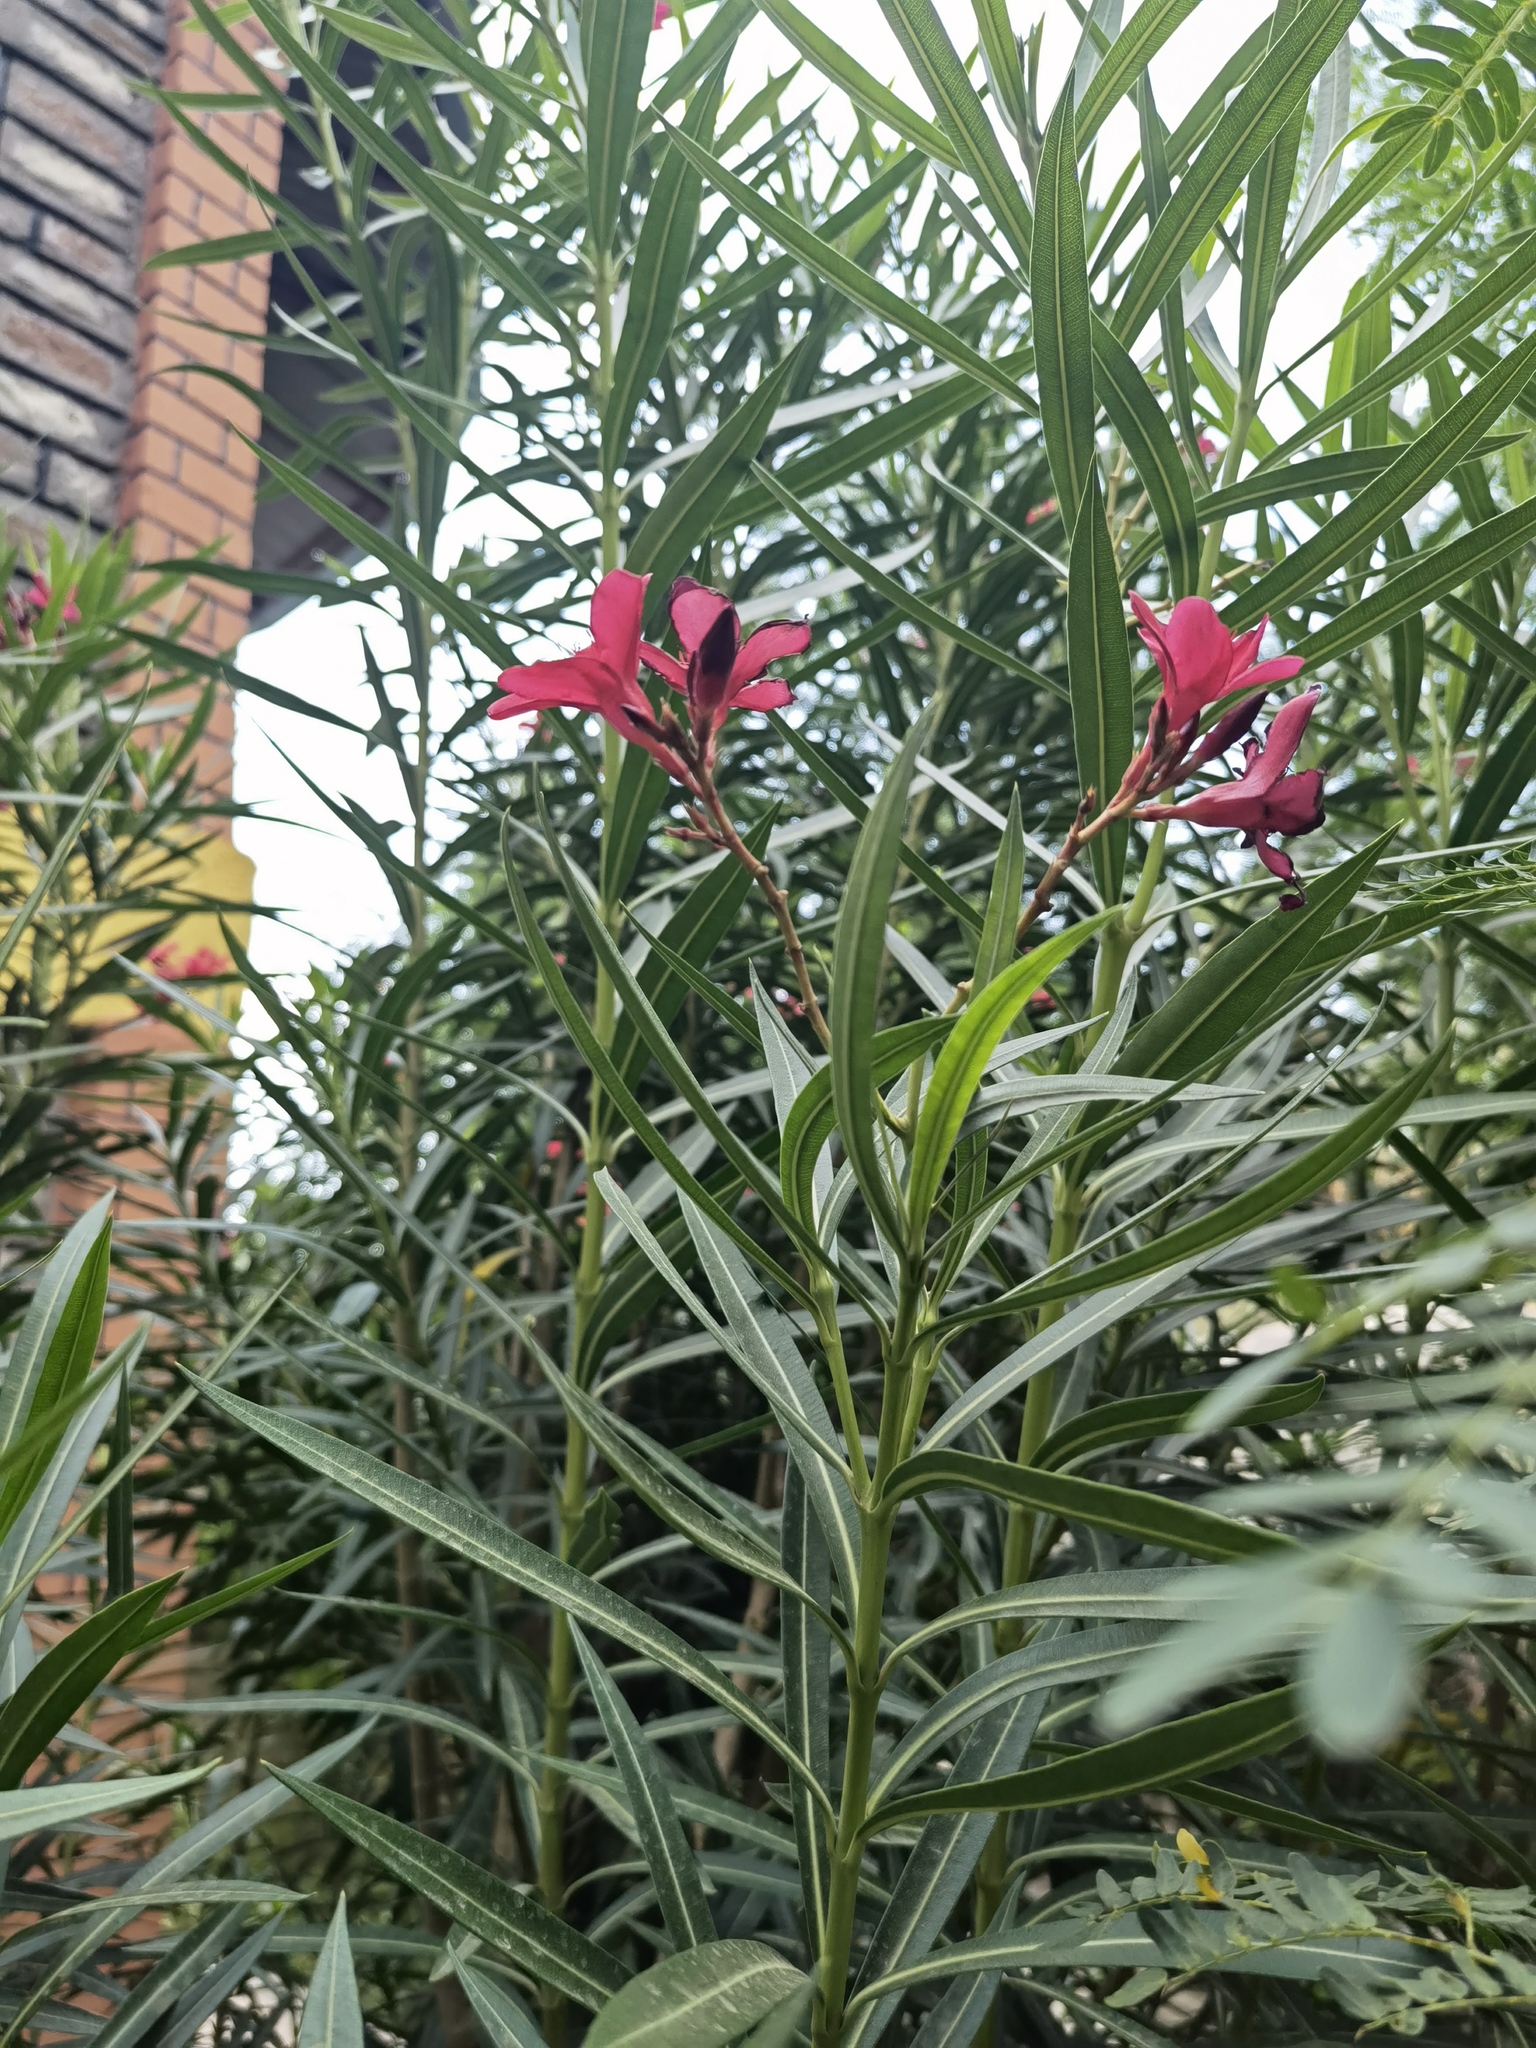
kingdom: Plantae
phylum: Tracheophyta
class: Magnoliopsida
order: Gentianales
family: Apocynaceae
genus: Nerium
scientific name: Nerium oleander
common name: Oleander
